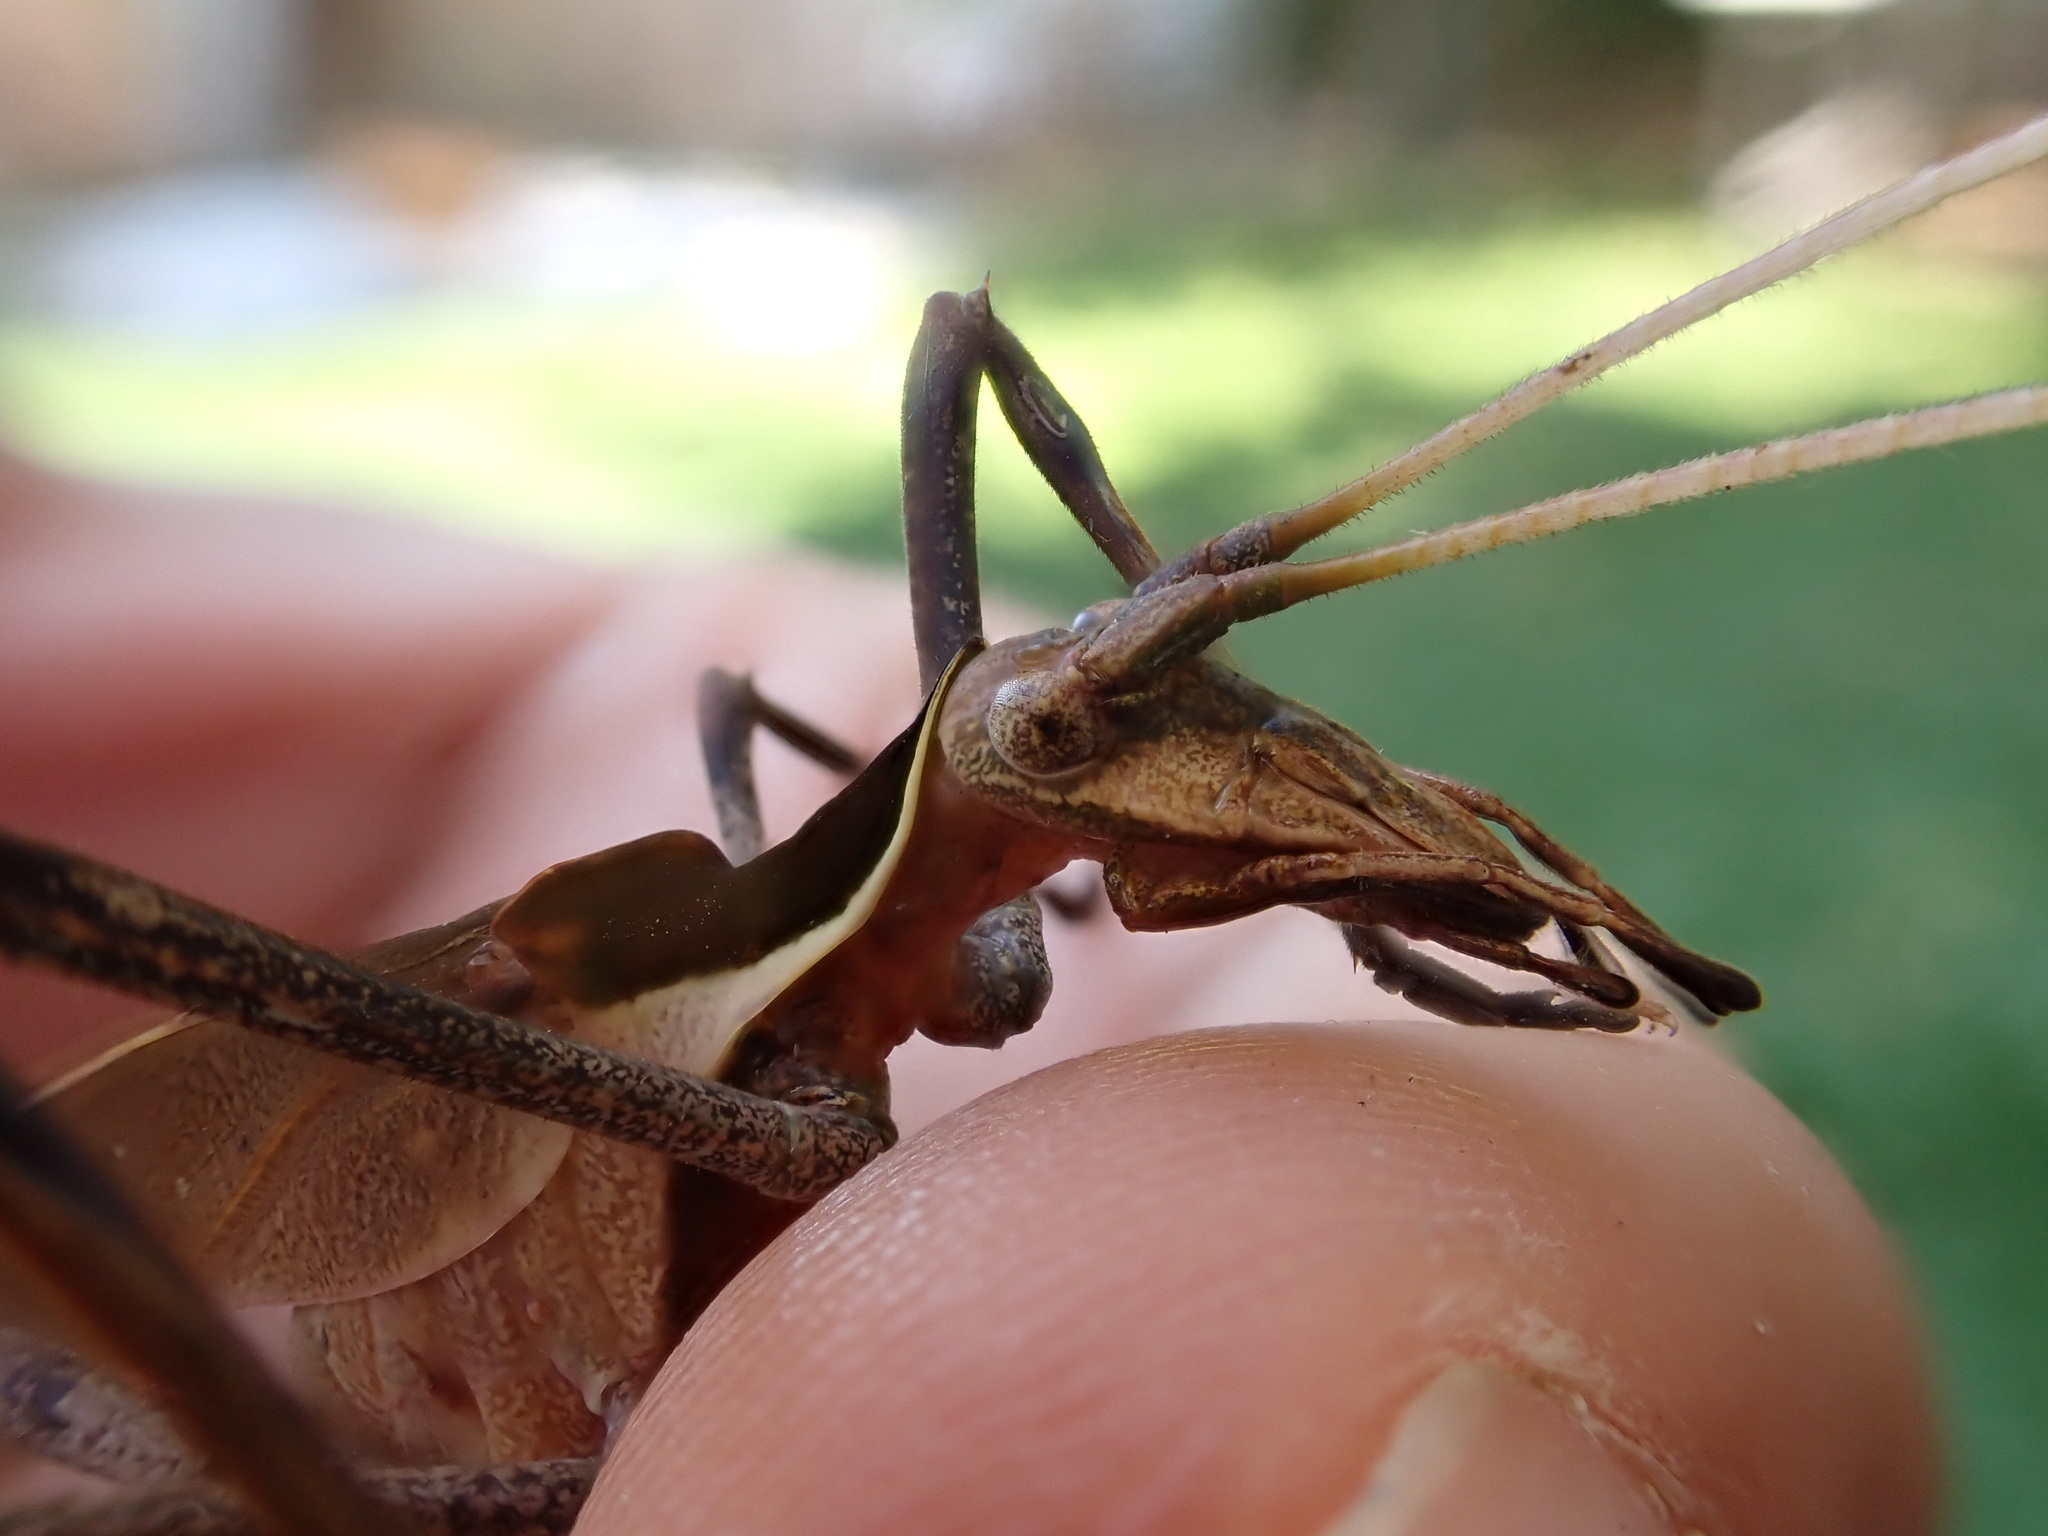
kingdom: Animalia
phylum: Arthropoda
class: Insecta
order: Orthoptera
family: Tettigoniidae
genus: Anthophiloptera
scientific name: Anthophiloptera dryas
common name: Balsam beast
